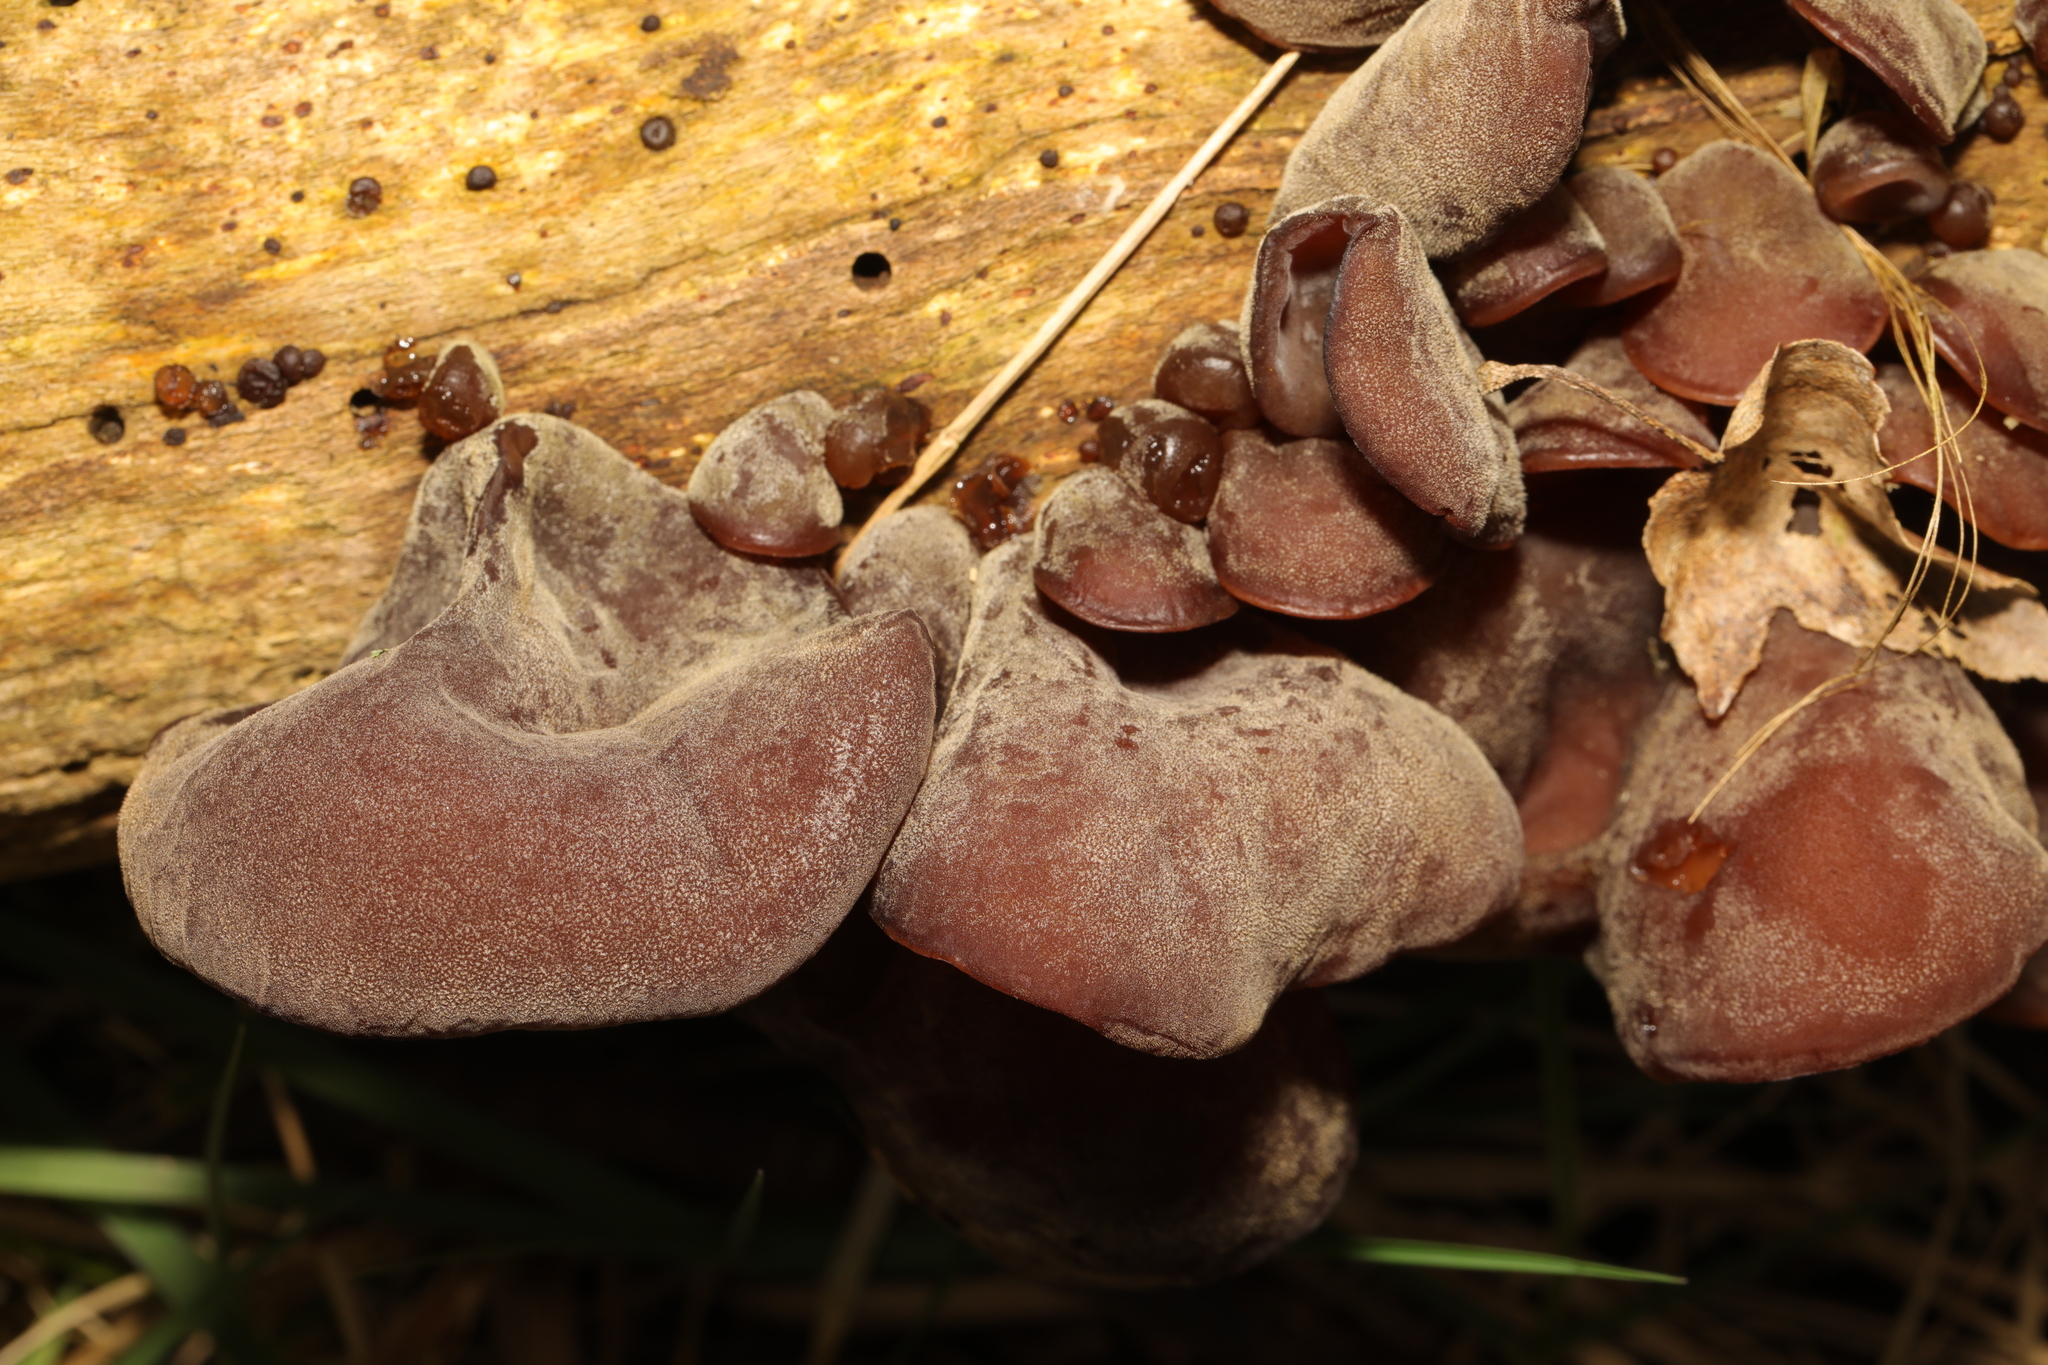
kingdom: Fungi
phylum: Basidiomycota
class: Agaricomycetes
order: Auriculariales
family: Auriculariaceae
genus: Auricularia
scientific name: Auricularia auricula-judae
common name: Jelly ear
